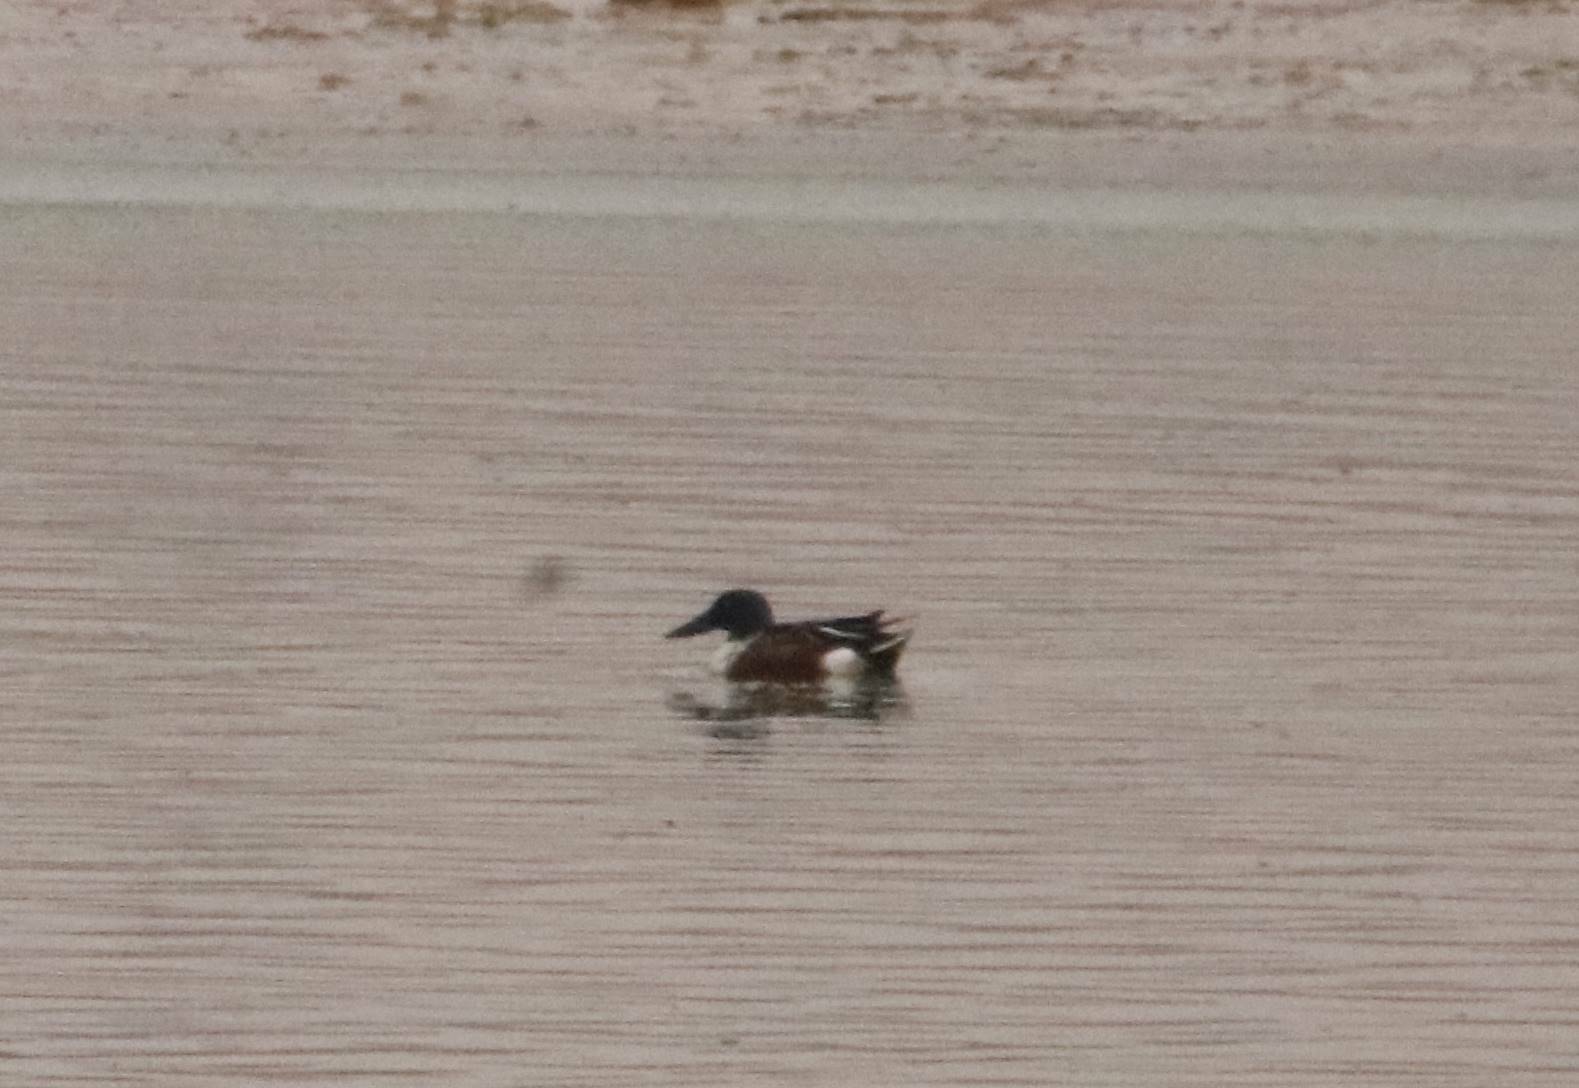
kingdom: Animalia
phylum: Chordata
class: Aves
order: Anseriformes
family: Anatidae
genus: Spatula
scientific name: Spatula clypeata
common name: Northern shoveler
